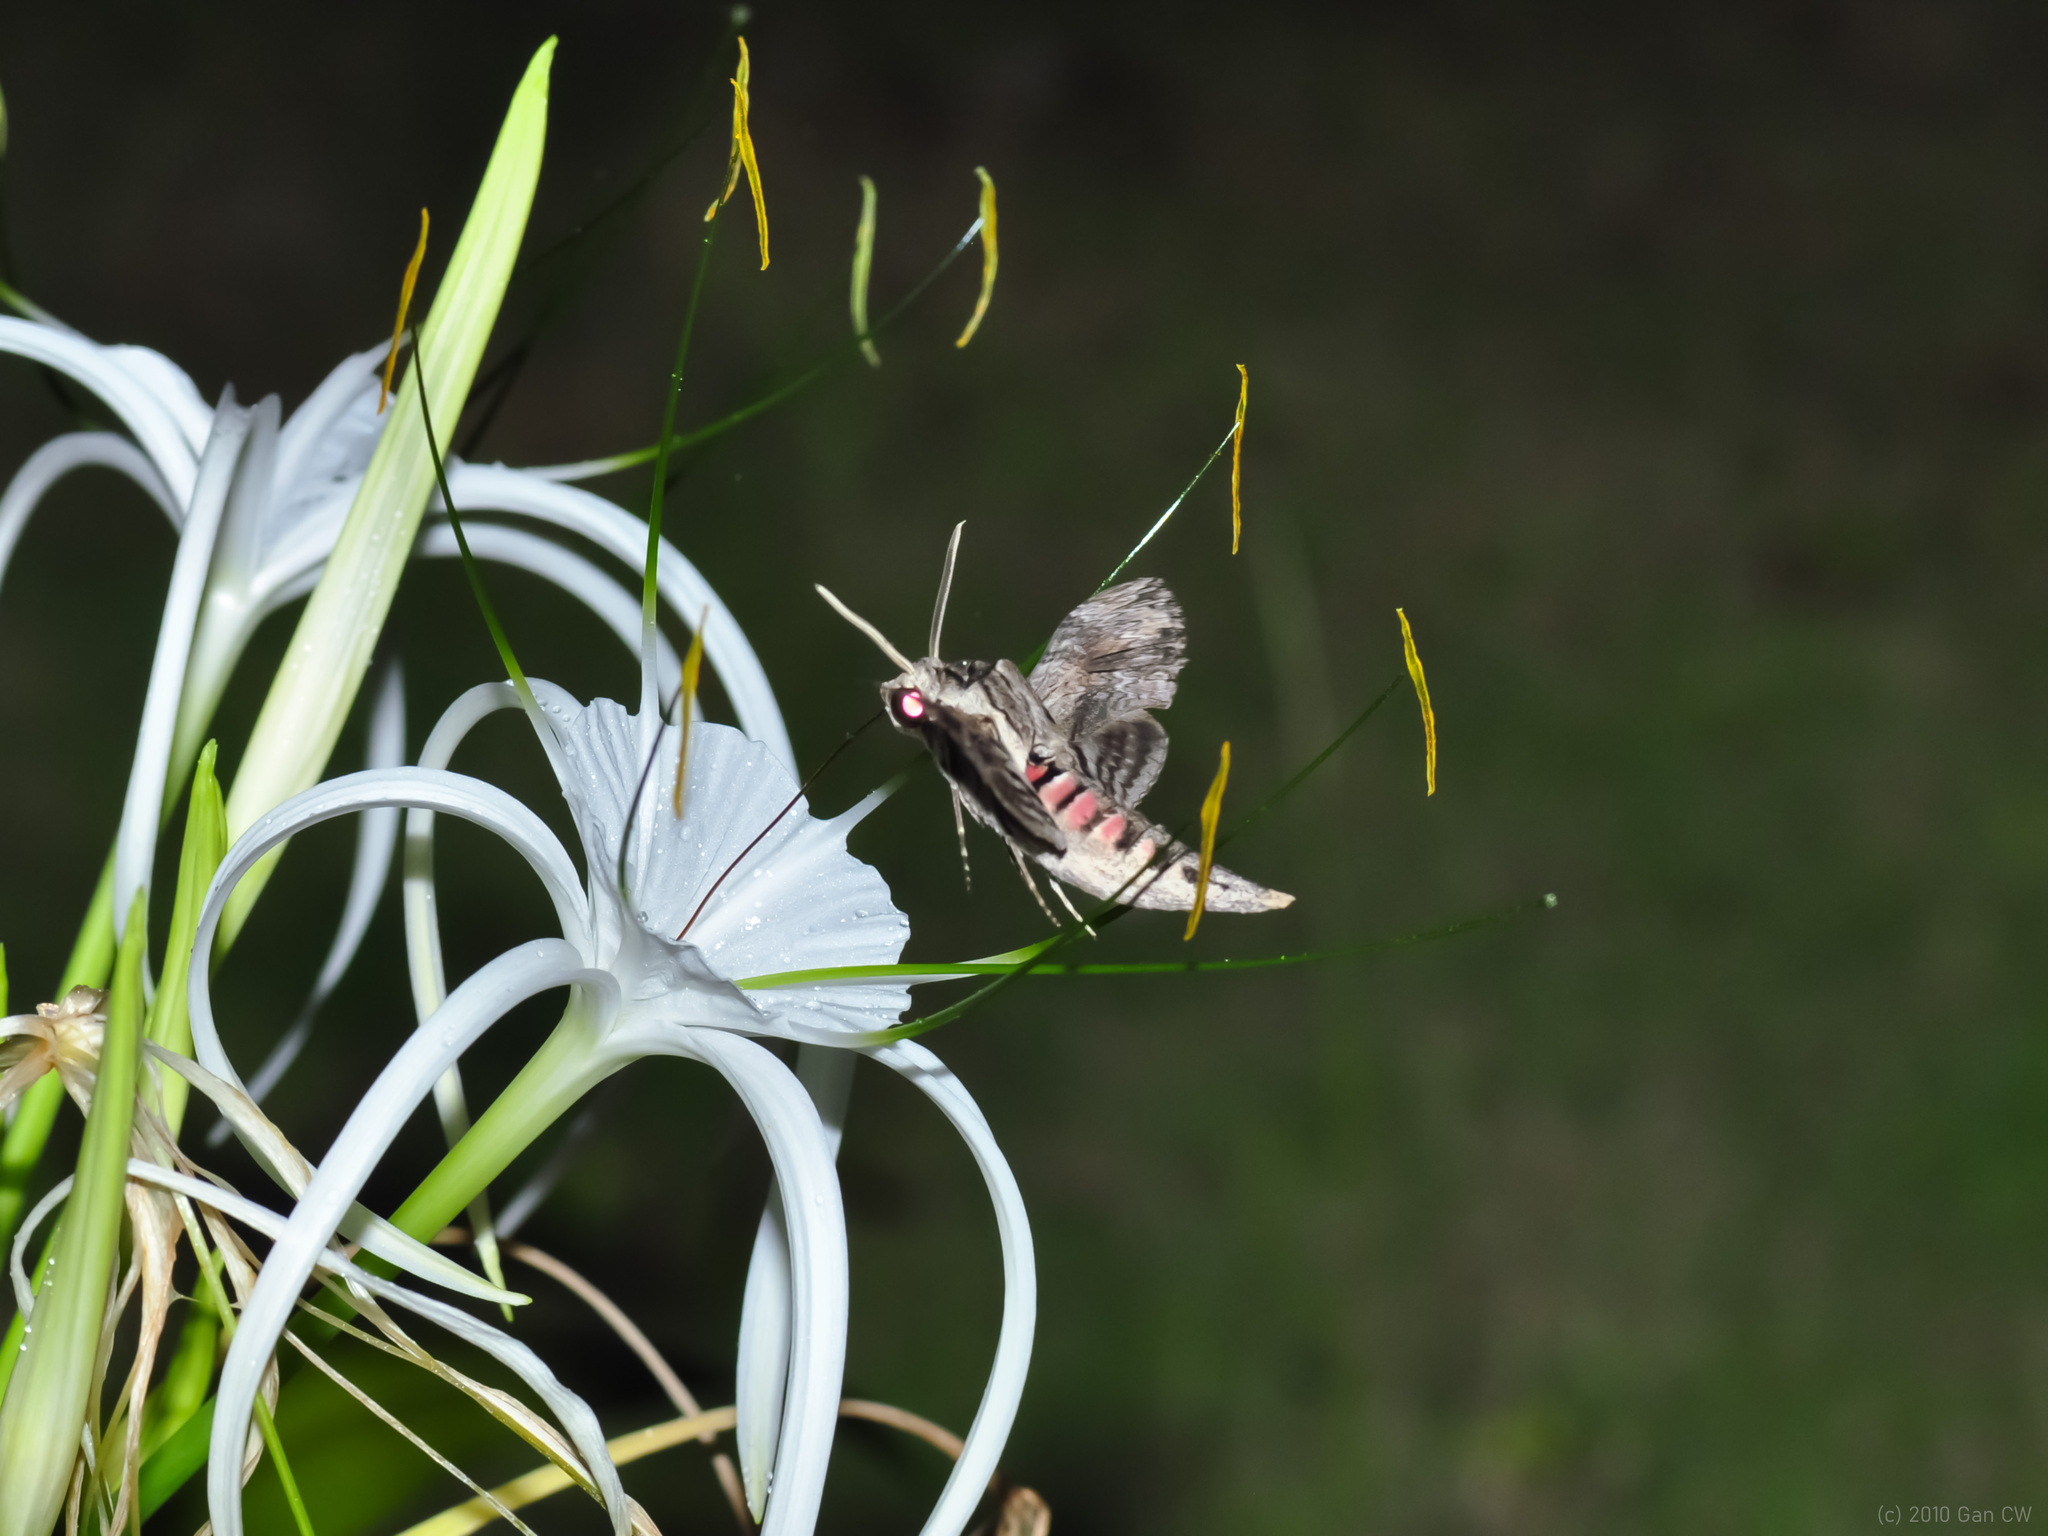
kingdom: Animalia
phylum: Arthropoda
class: Insecta
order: Lepidoptera
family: Sphingidae
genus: Agrius
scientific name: Agrius convolvuli
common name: Convolvulus hawkmoth
